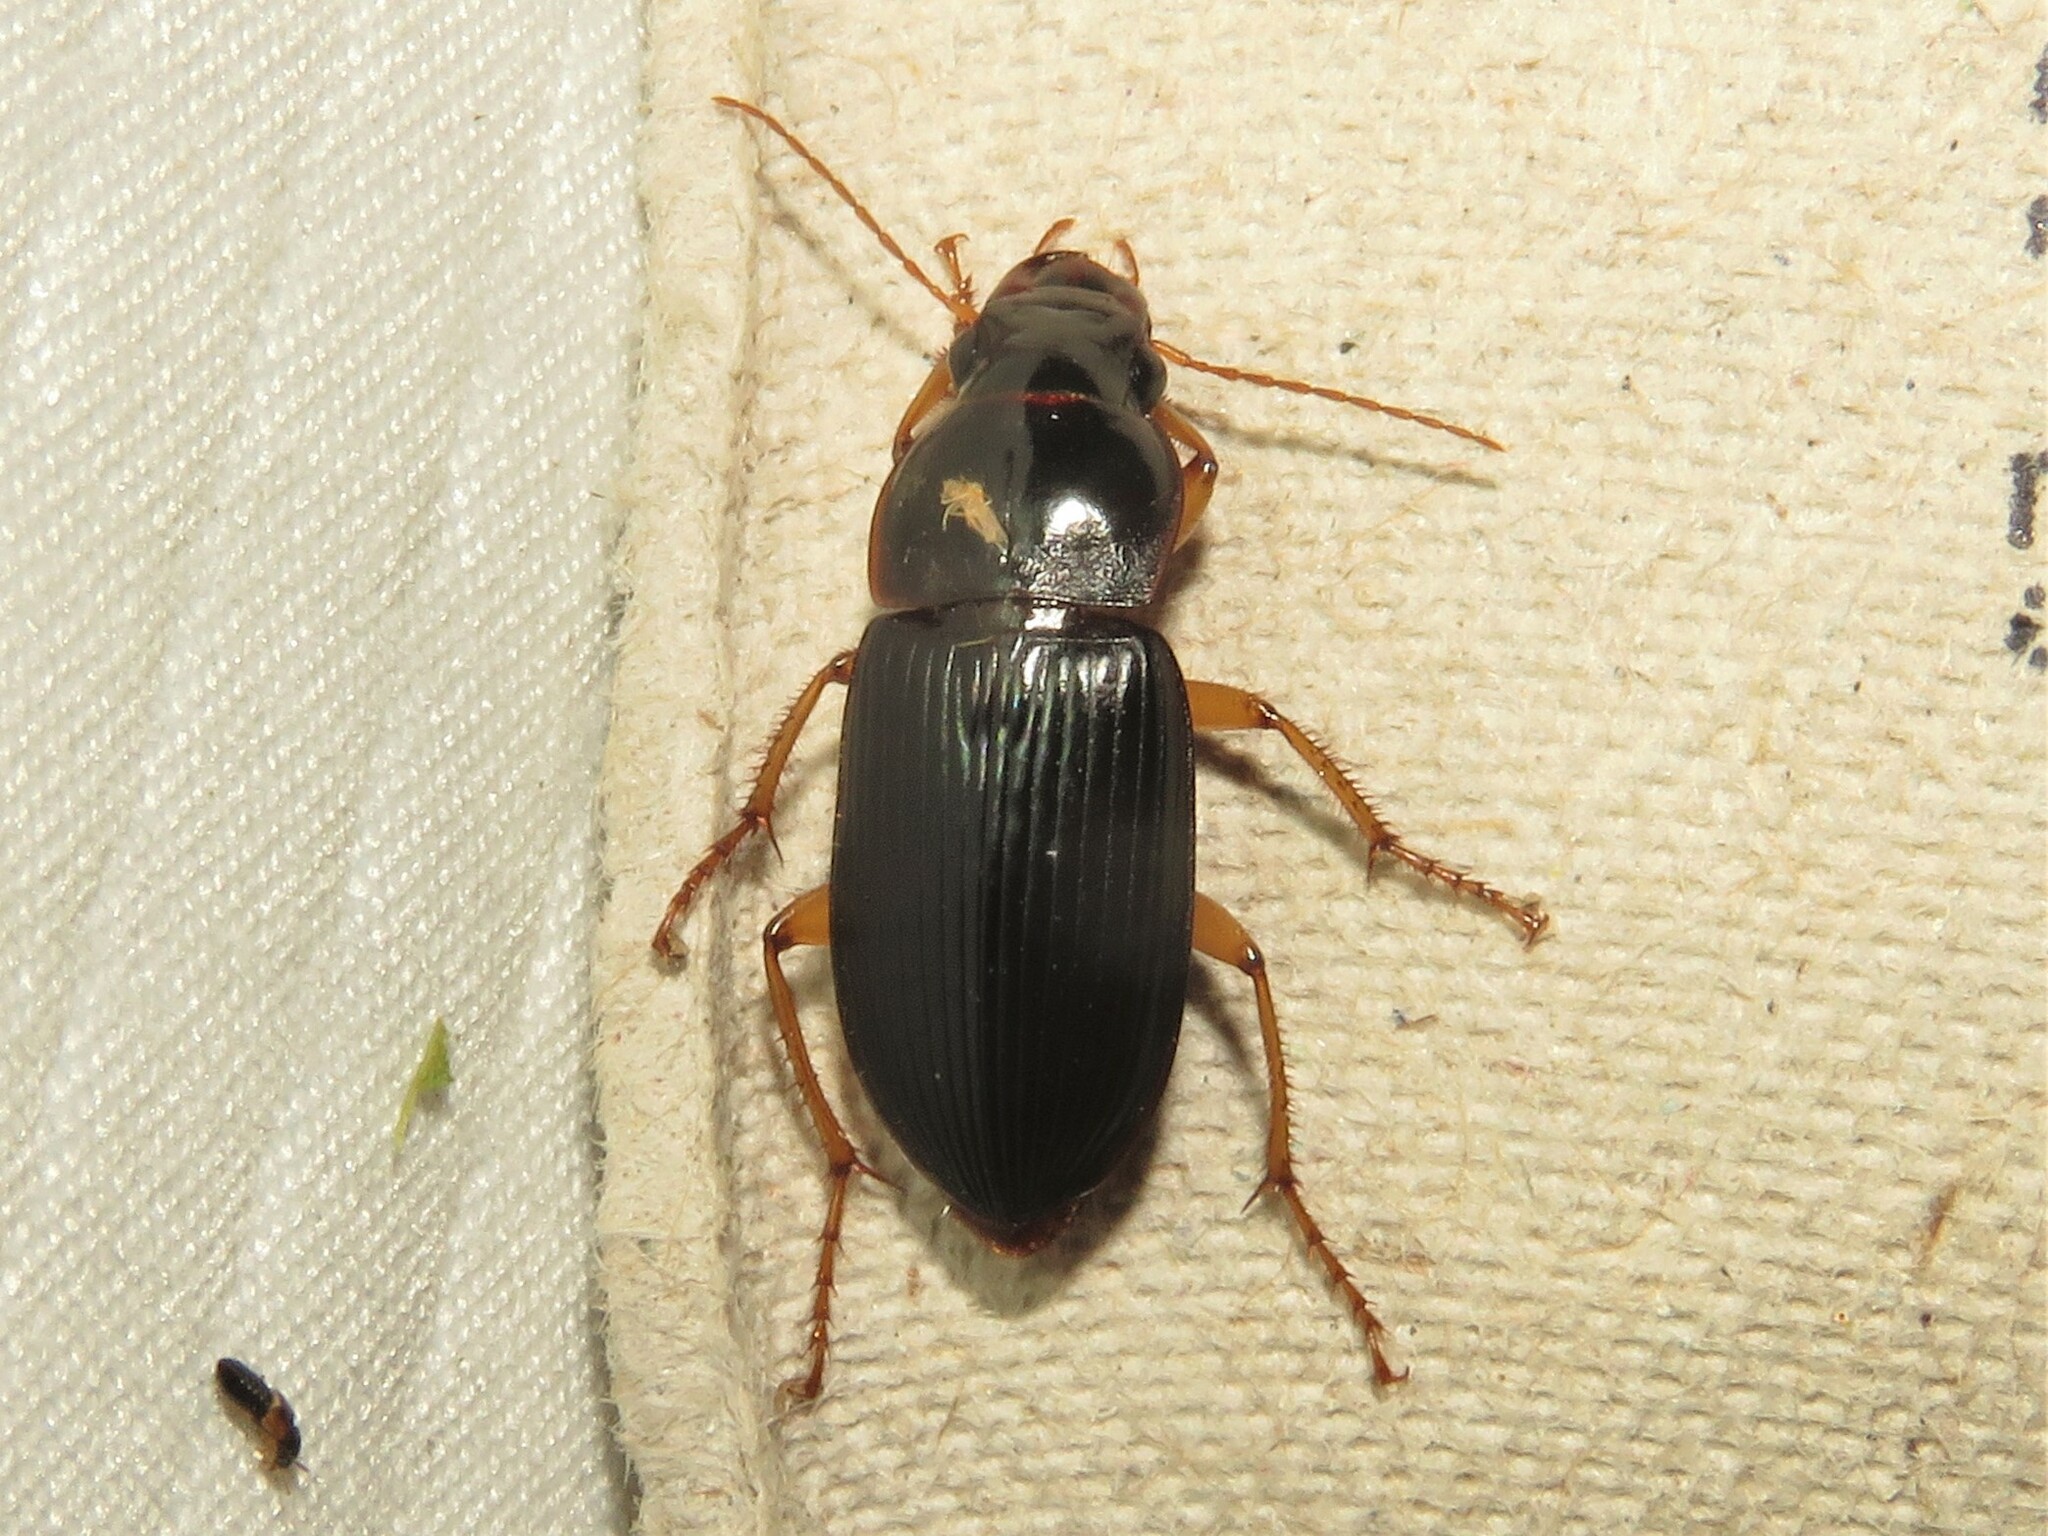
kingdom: Animalia
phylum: Arthropoda
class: Insecta
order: Coleoptera
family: Carabidae
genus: Harpalus
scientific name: Harpalus pensylvanicus
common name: Pennsylvania dingy ground beetle
